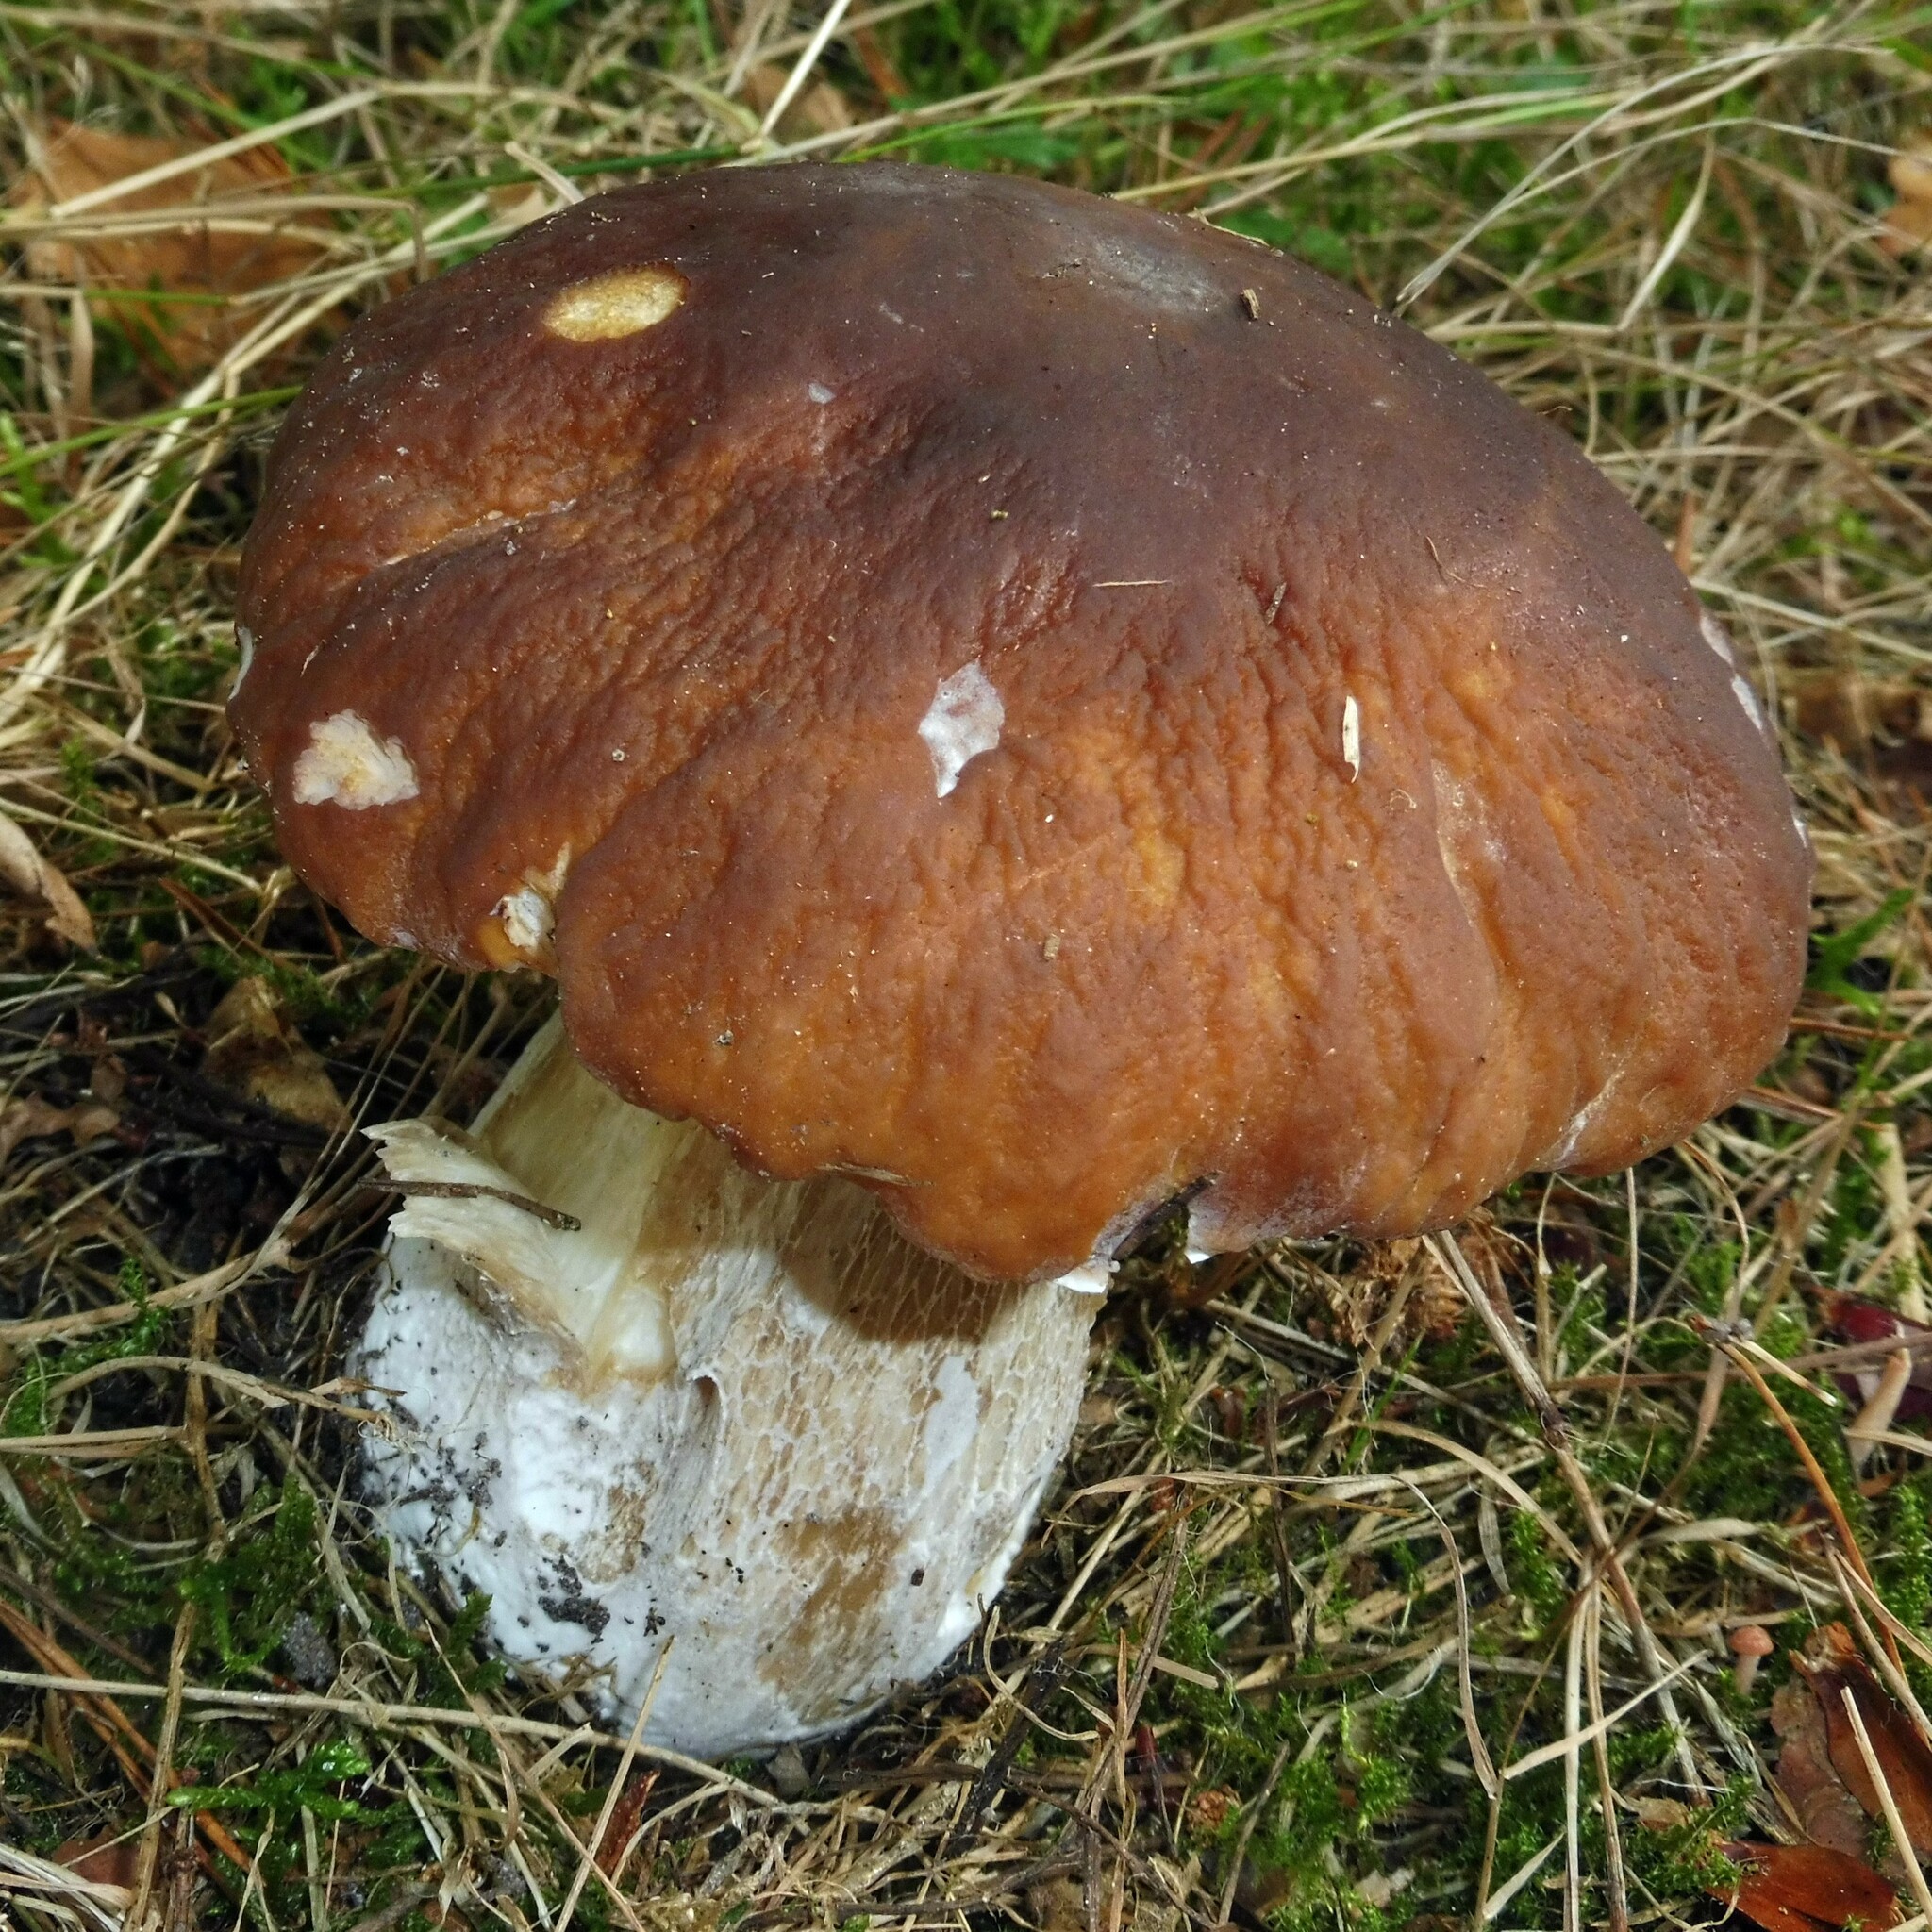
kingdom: Fungi
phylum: Basidiomycota
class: Agaricomycetes
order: Boletales
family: Boletaceae
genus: Boletus
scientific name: Boletus edulis
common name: Cep
